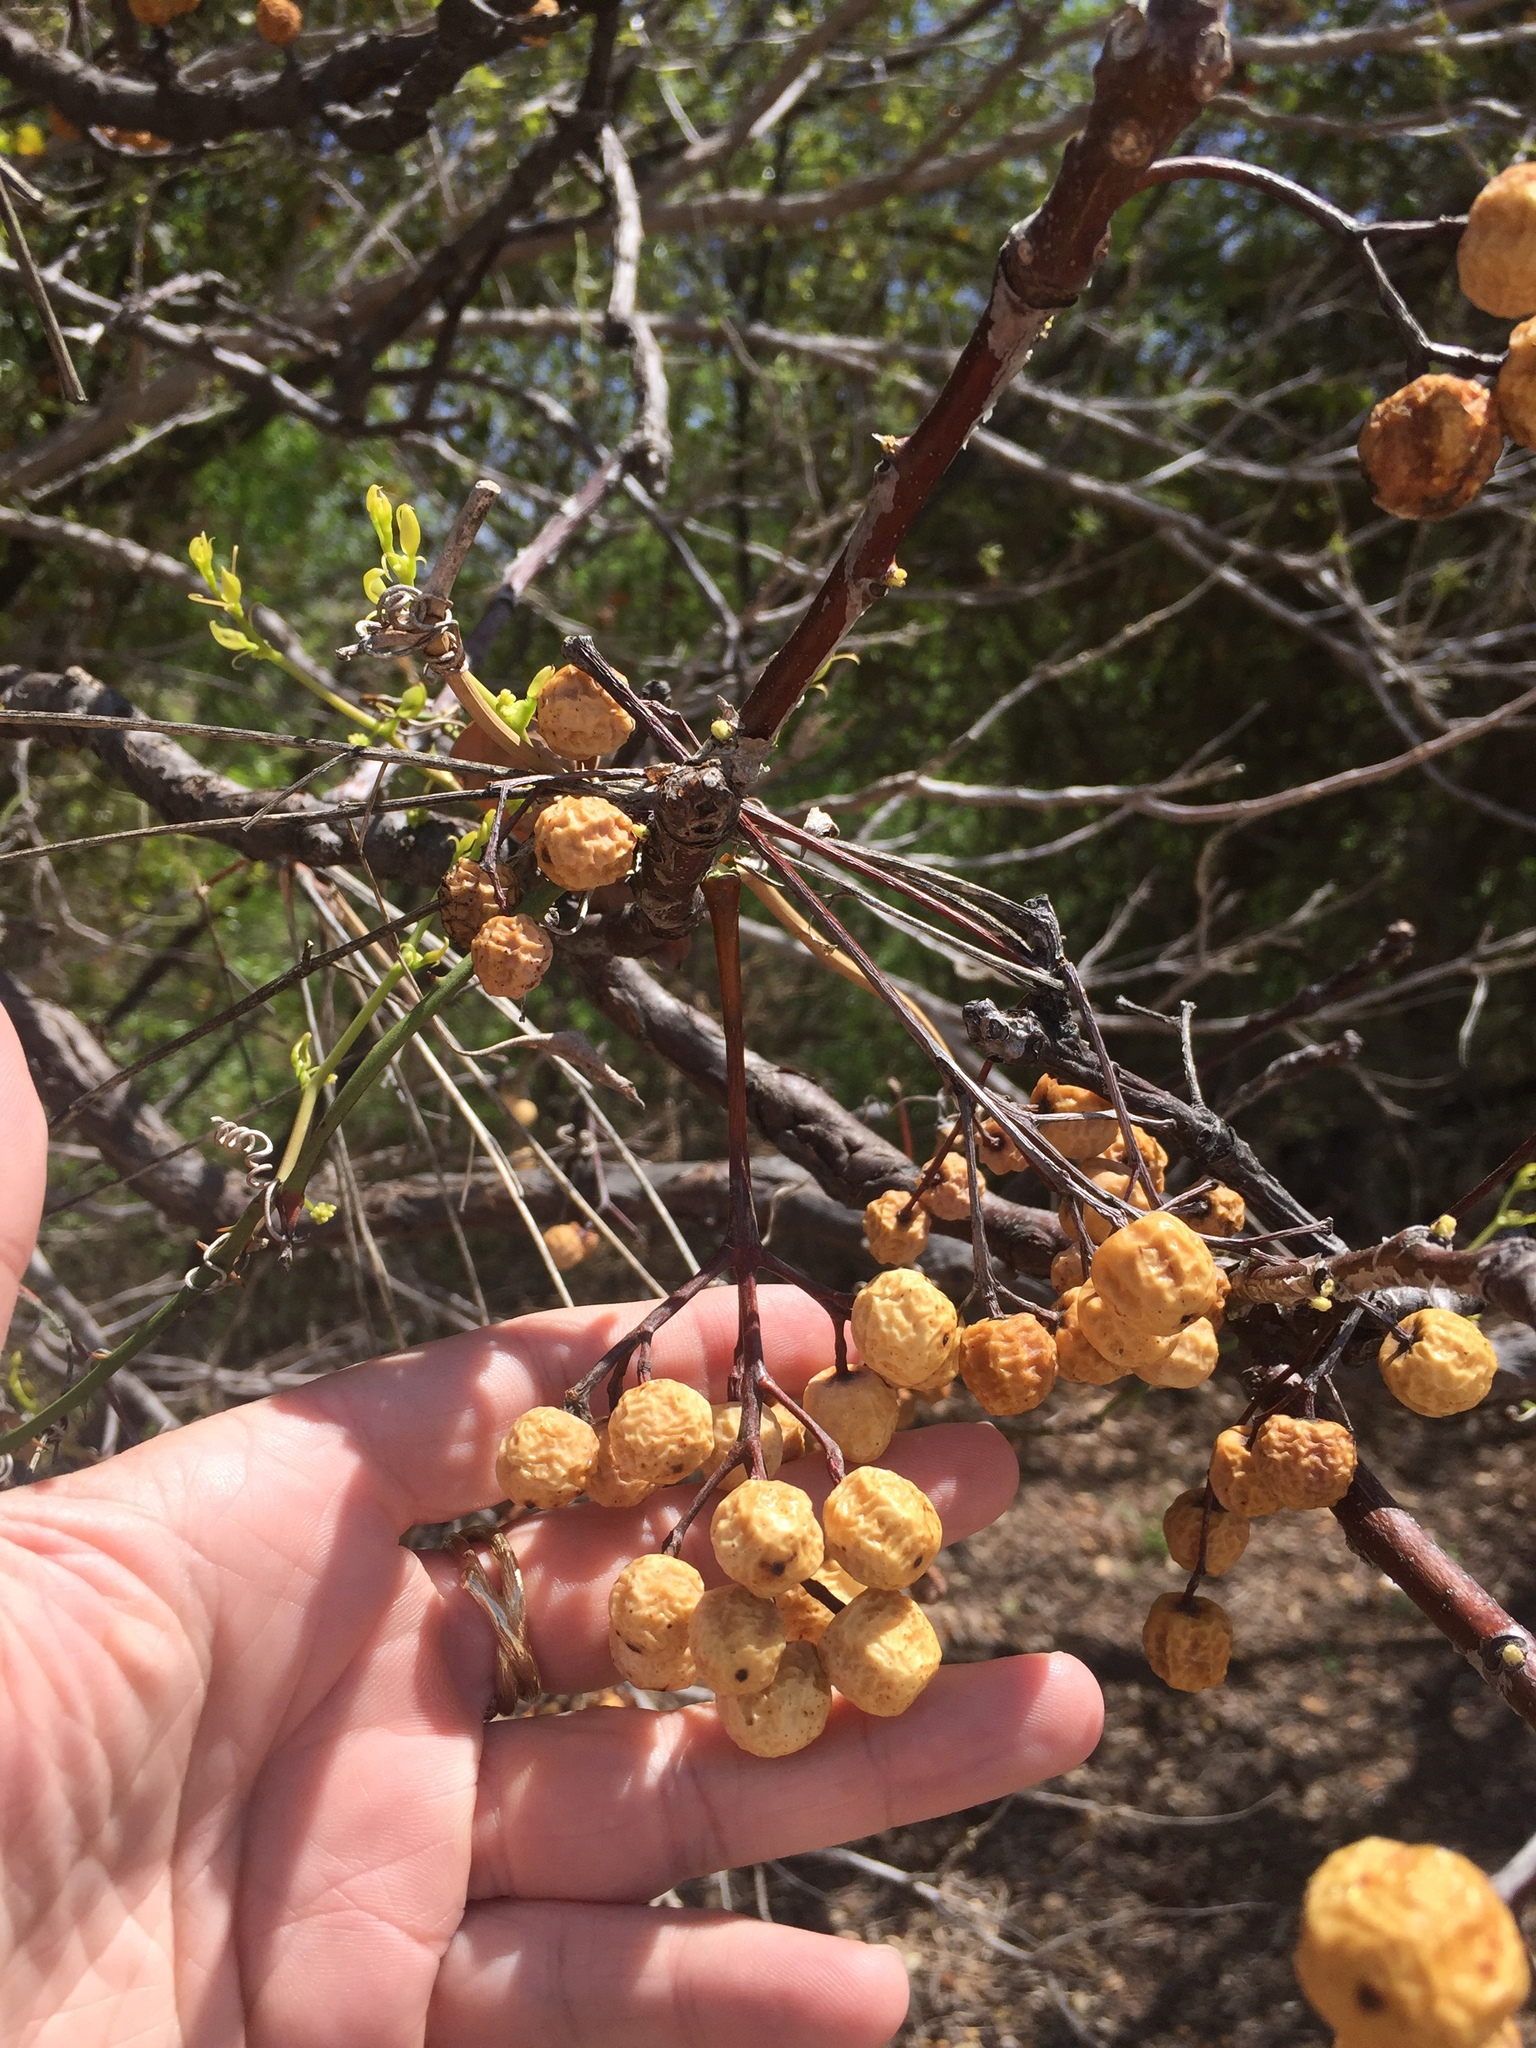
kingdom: Plantae
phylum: Tracheophyta
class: Magnoliopsida
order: Sapindales
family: Meliaceae
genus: Melia
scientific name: Melia azedarach
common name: Chinaberrytree
